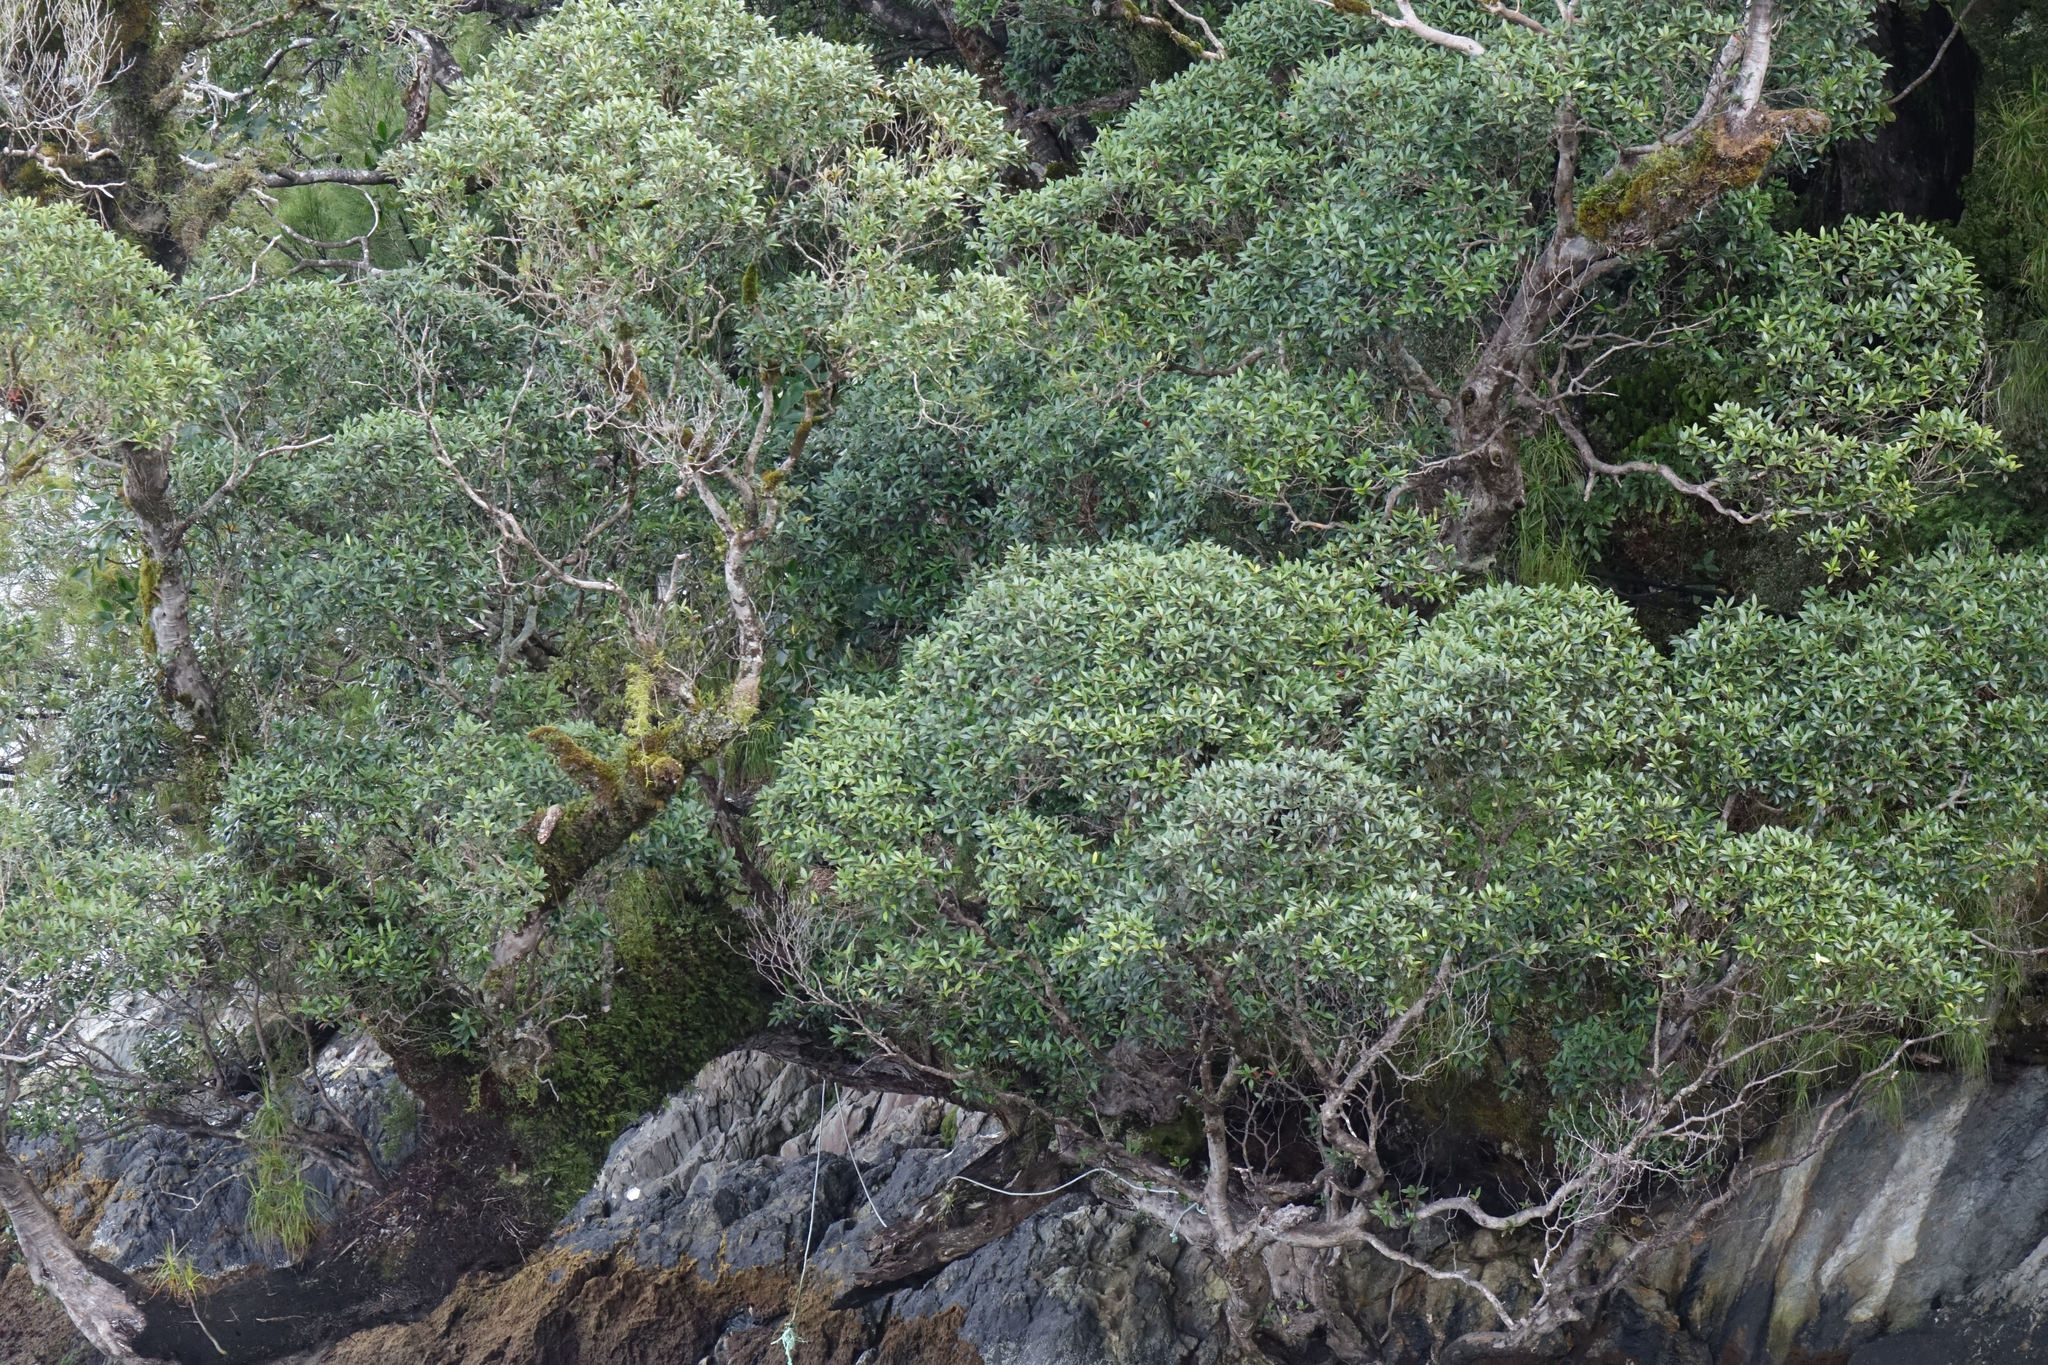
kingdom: Plantae
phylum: Tracheophyta
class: Magnoliopsida
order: Myrtales
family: Myrtaceae
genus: Metrosideros
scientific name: Metrosideros umbellata
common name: Southern rata
